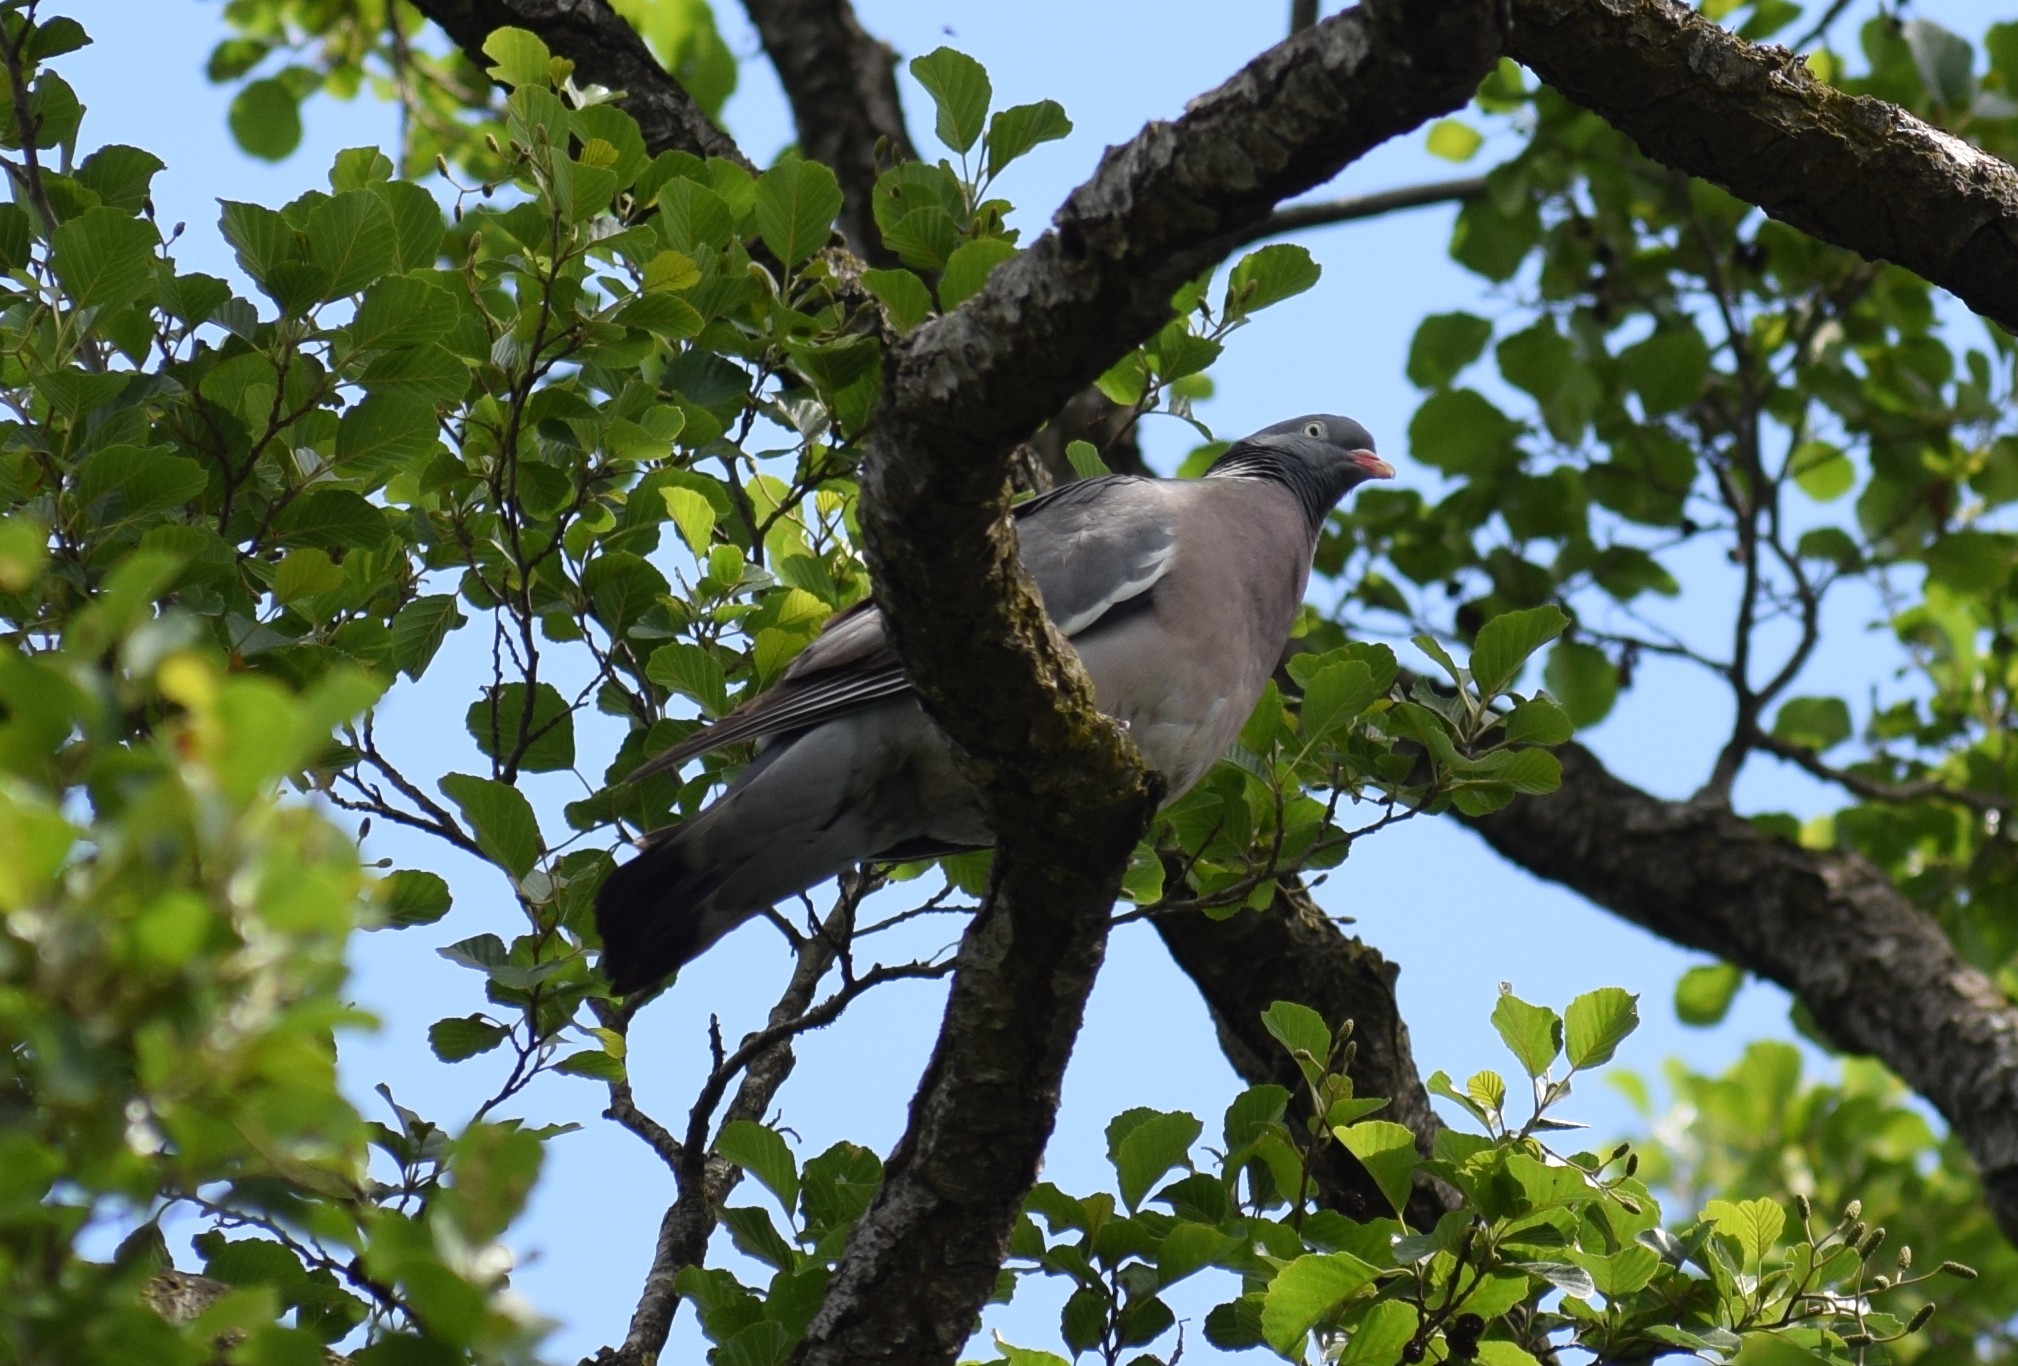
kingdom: Animalia
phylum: Chordata
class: Aves
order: Columbiformes
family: Columbidae
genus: Columba
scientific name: Columba palumbus
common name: Common wood pigeon
